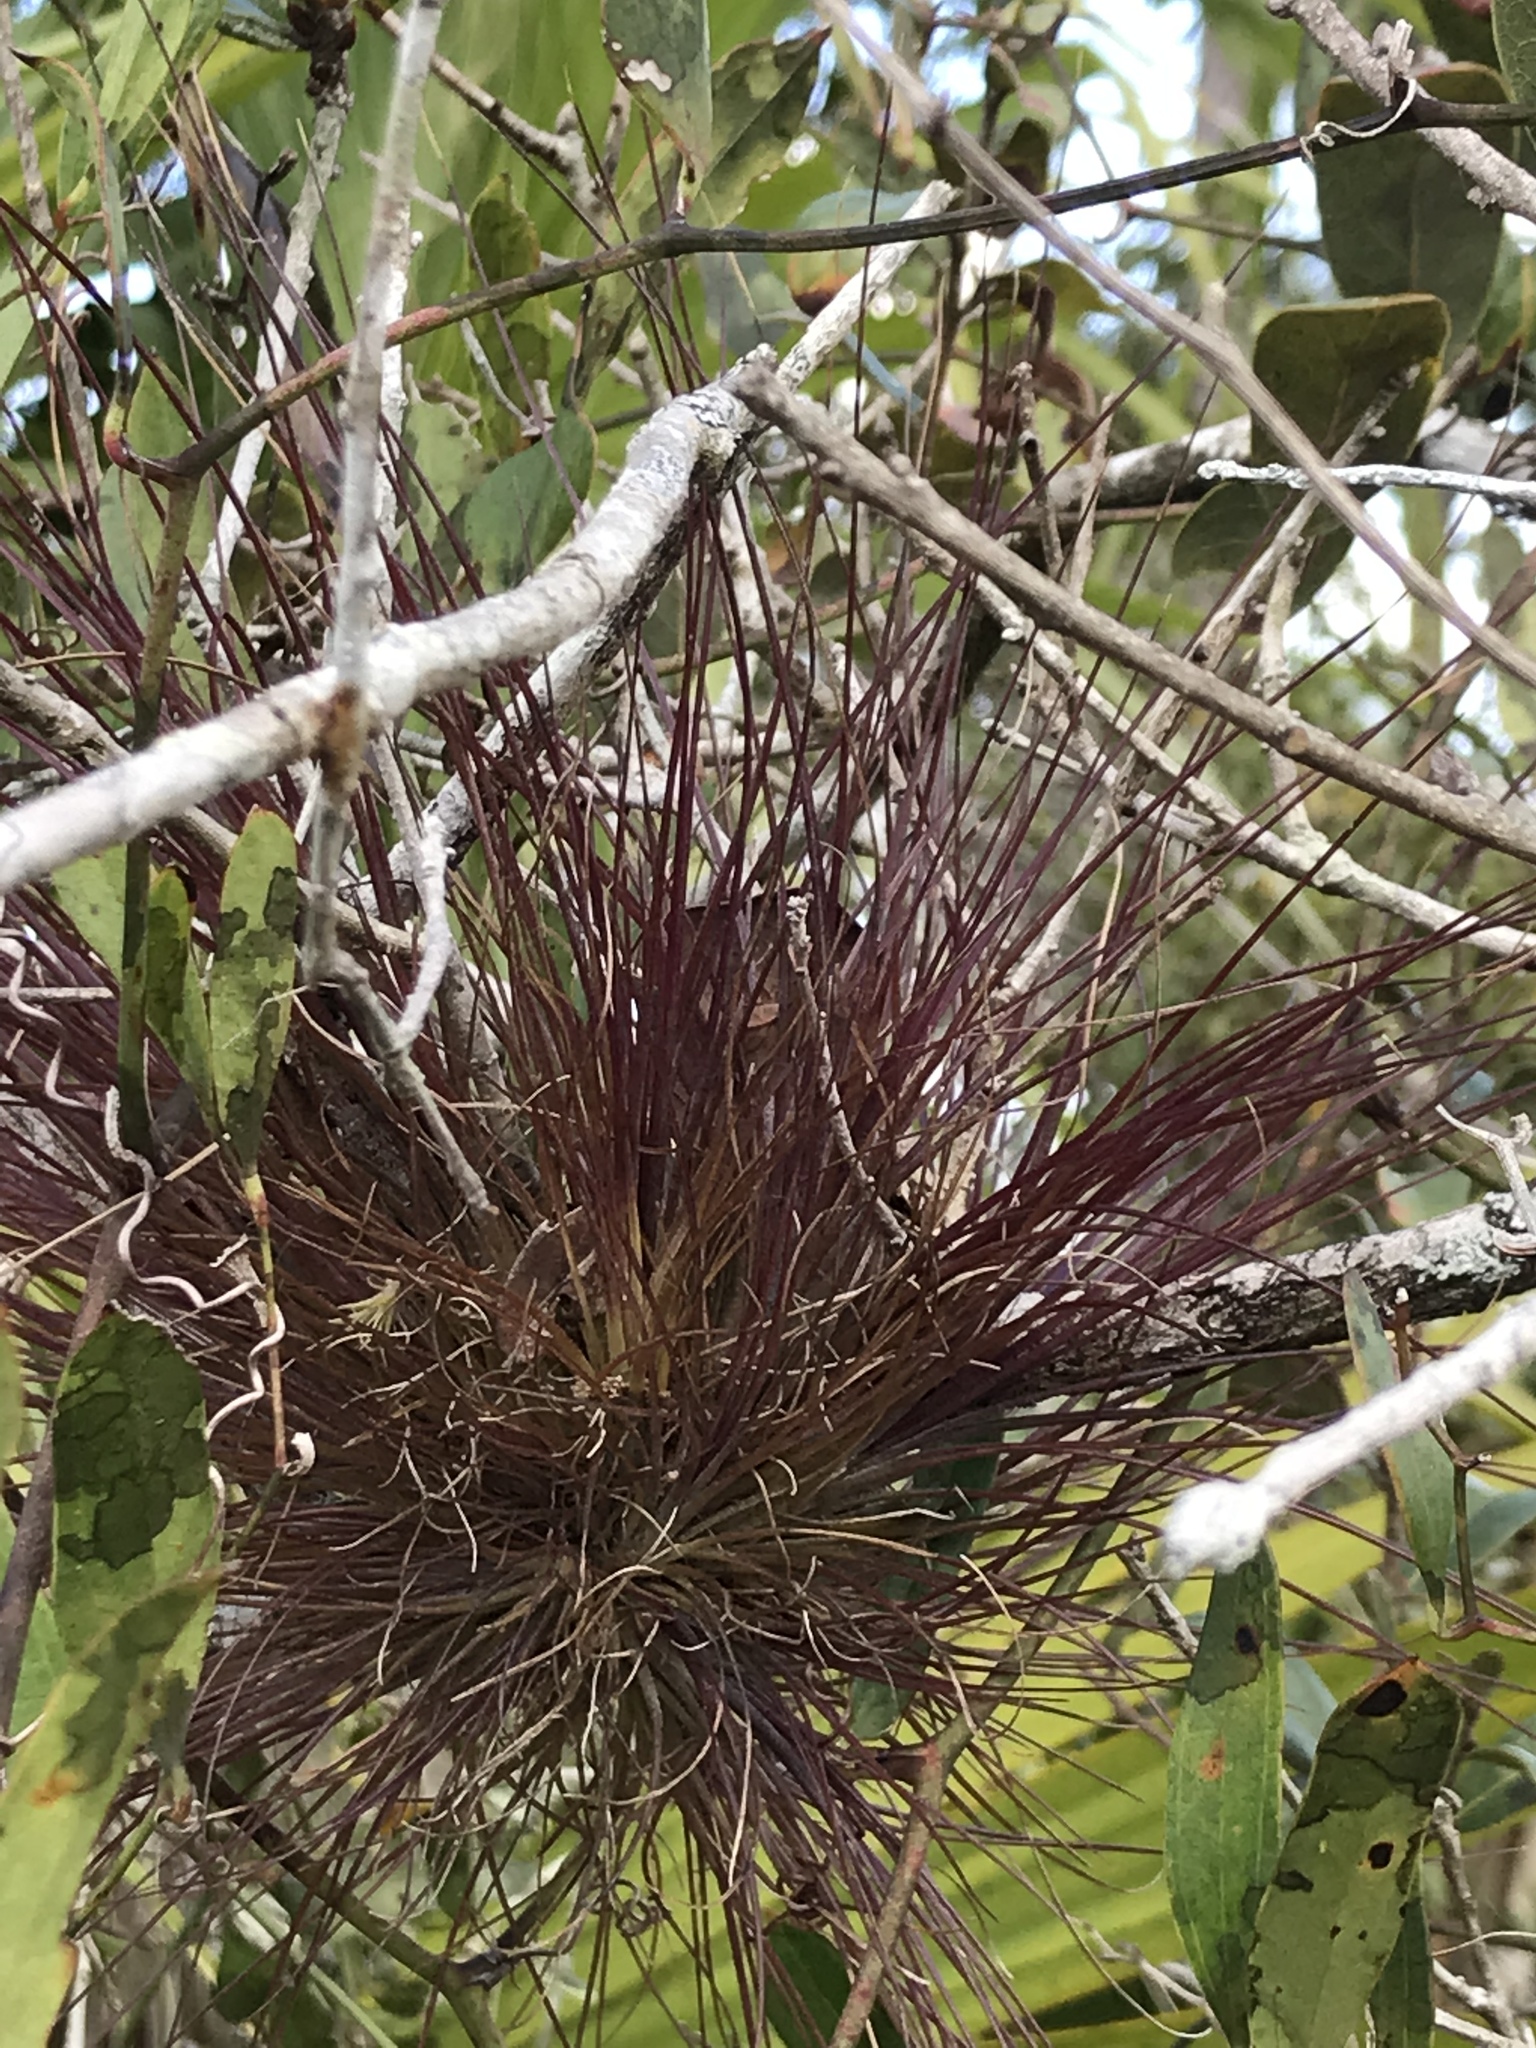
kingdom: Plantae
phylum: Tracheophyta
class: Liliopsida
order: Poales
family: Bromeliaceae
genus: Tillandsia
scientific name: Tillandsia setacea
